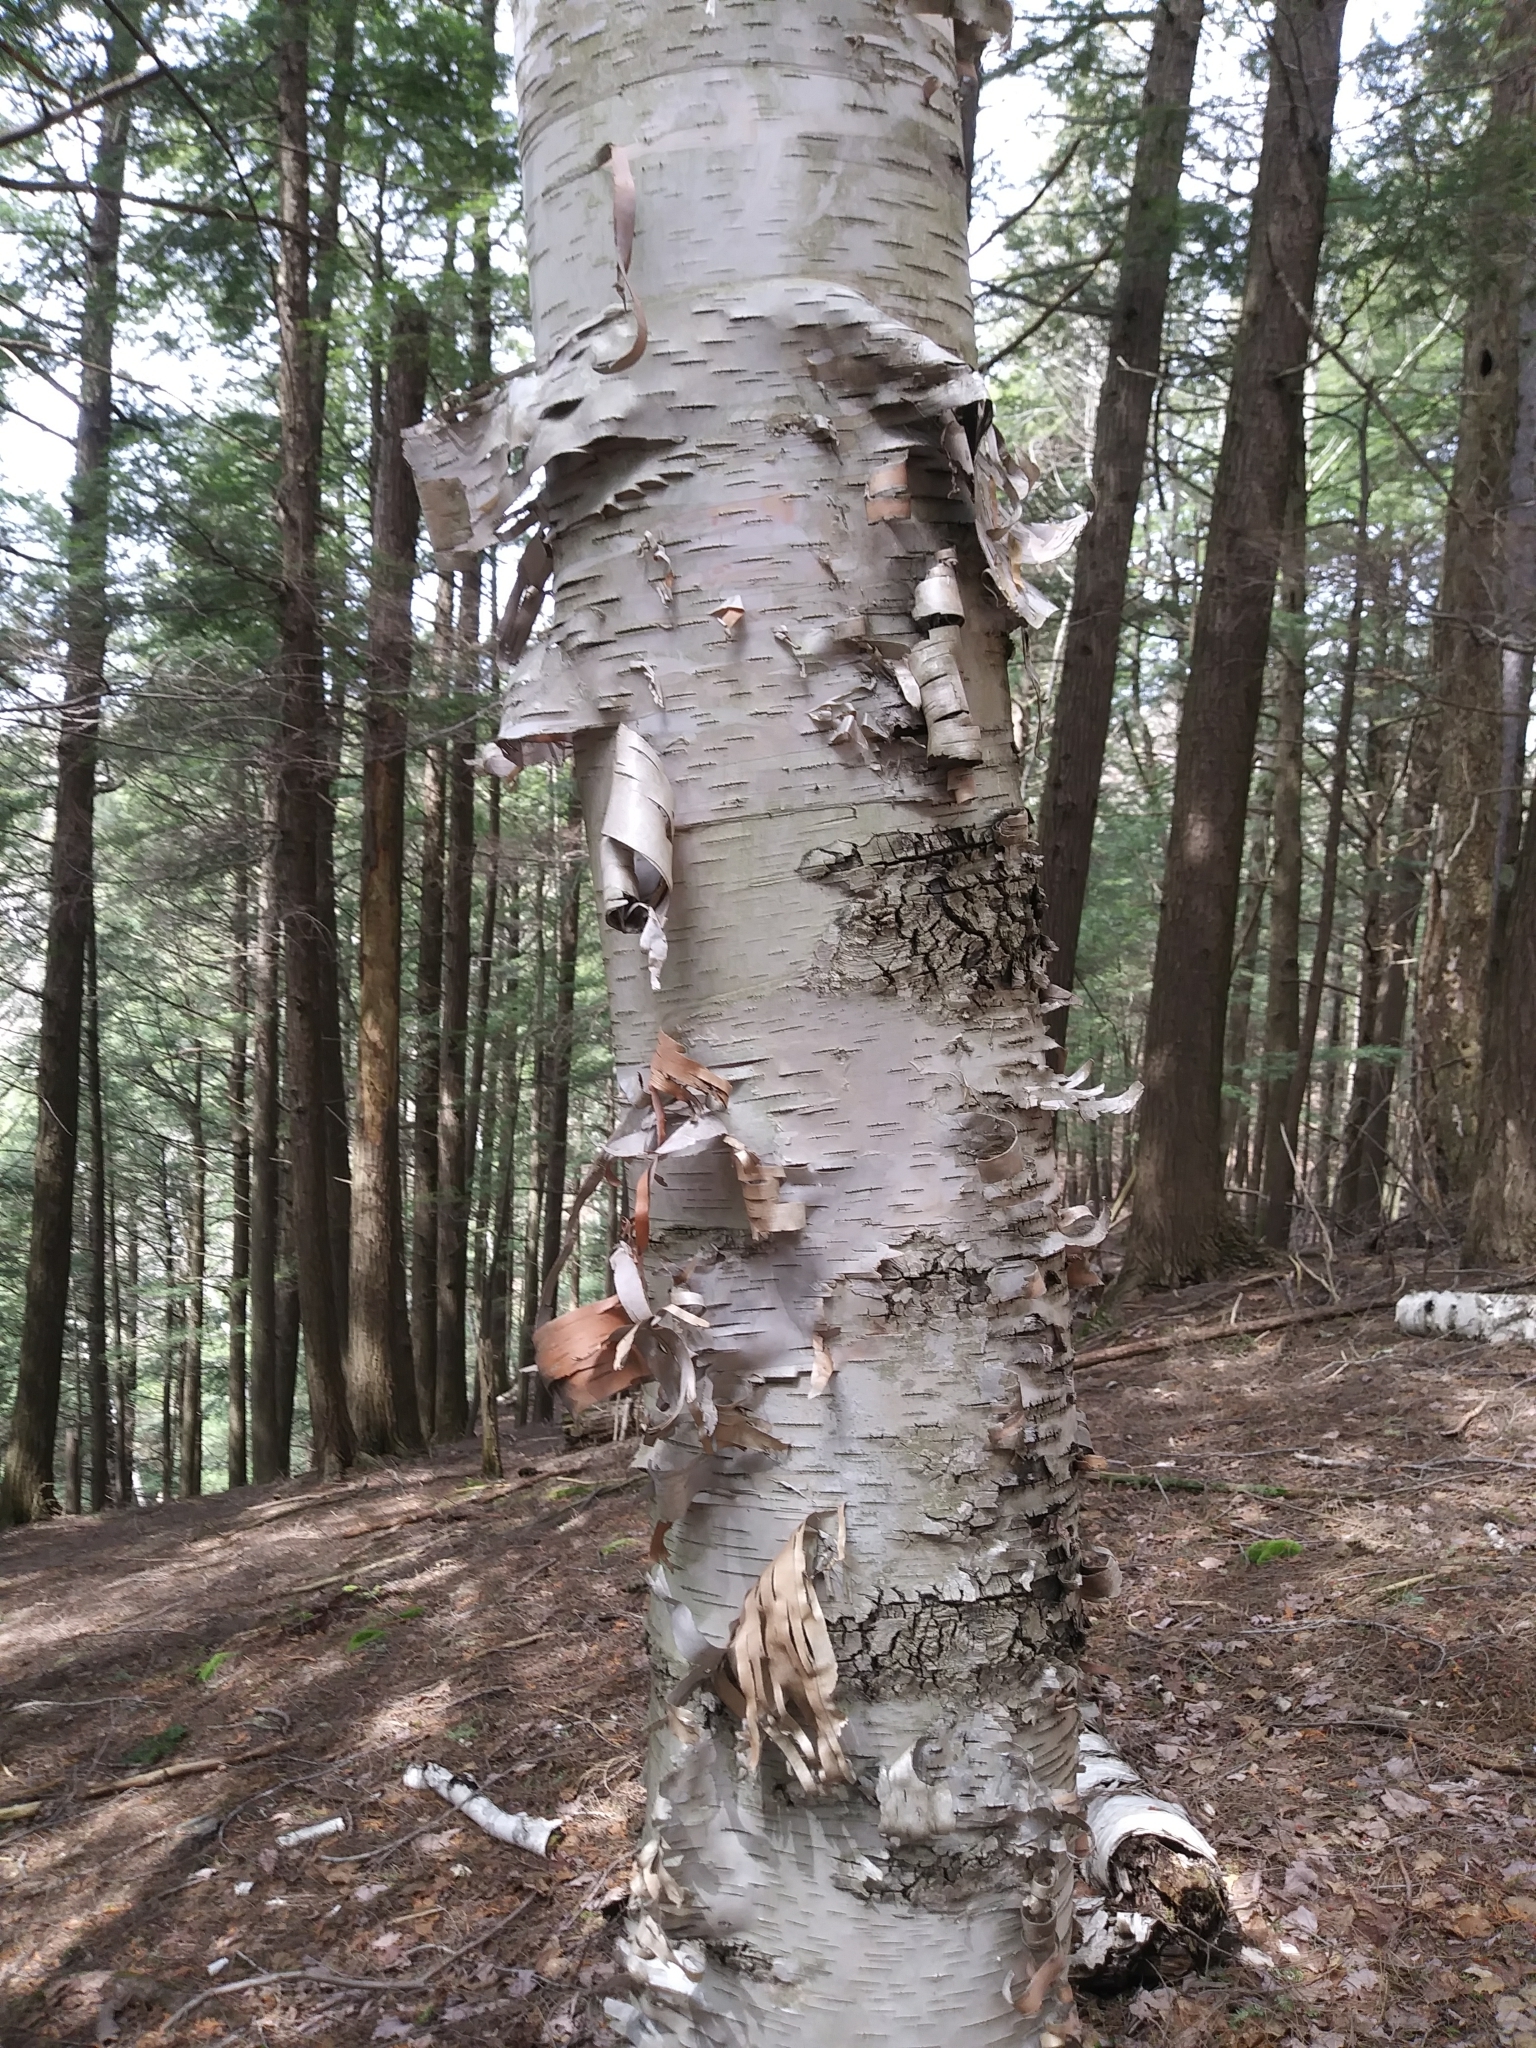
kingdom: Plantae
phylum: Tracheophyta
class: Magnoliopsida
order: Fagales
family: Betulaceae
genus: Betula
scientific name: Betula papyrifera
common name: Paper birch
